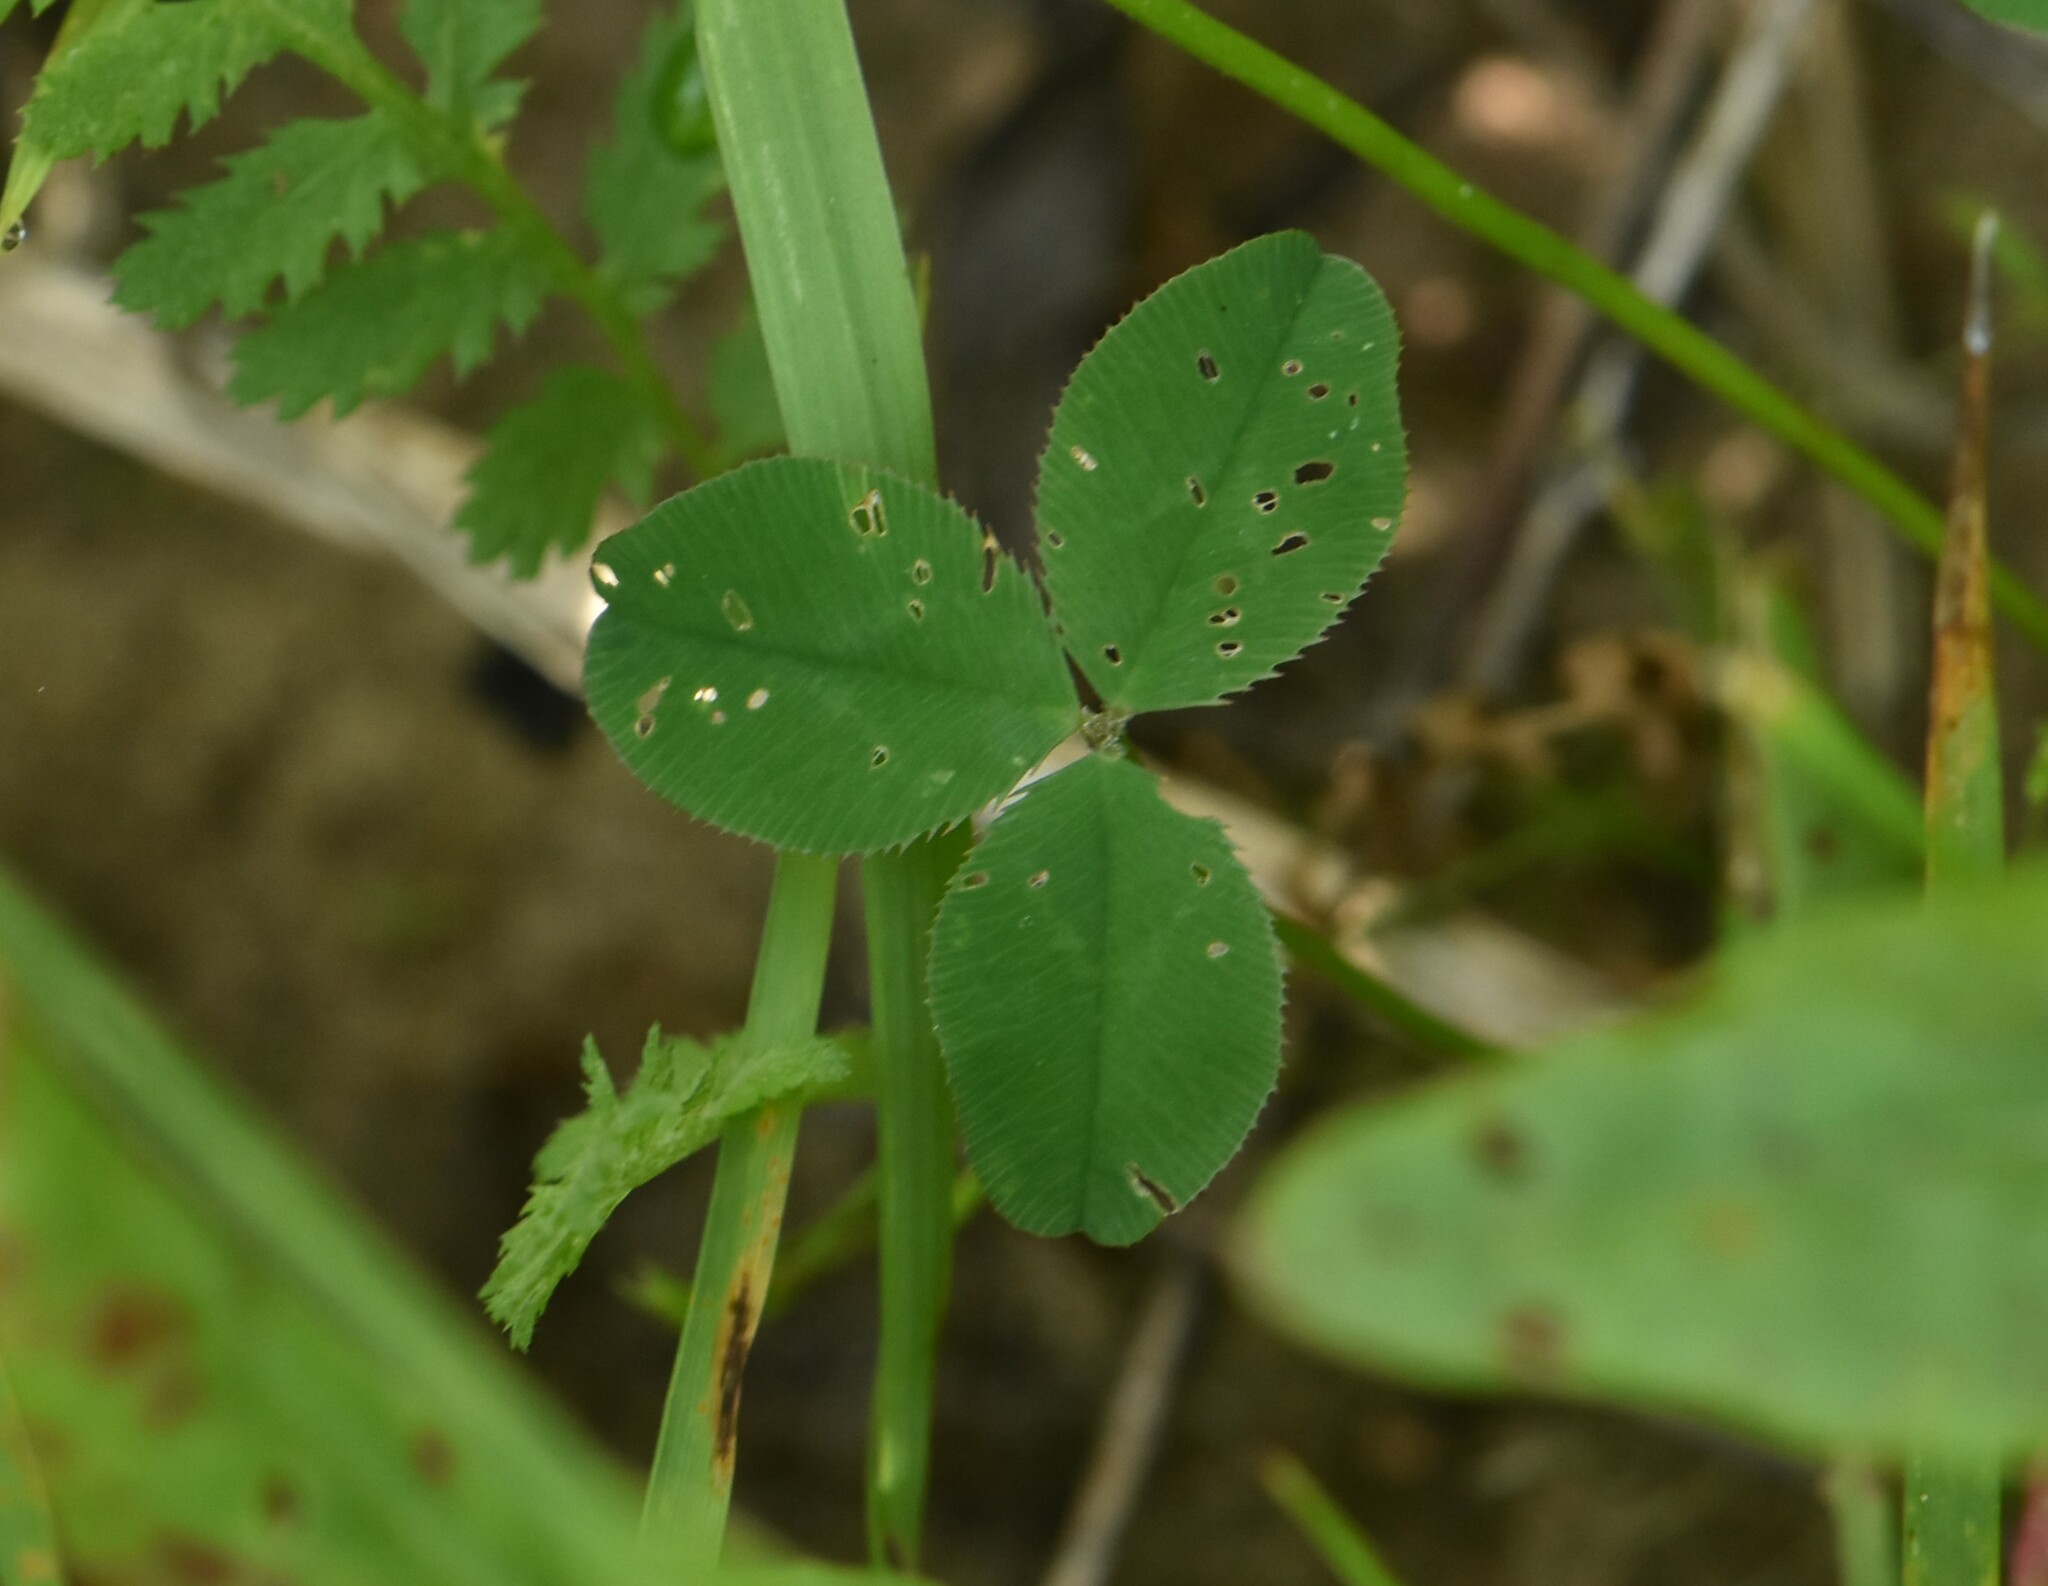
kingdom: Plantae
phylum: Tracheophyta
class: Magnoliopsida
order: Fabales
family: Fabaceae
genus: Trifolium
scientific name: Trifolium repens
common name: White clover
